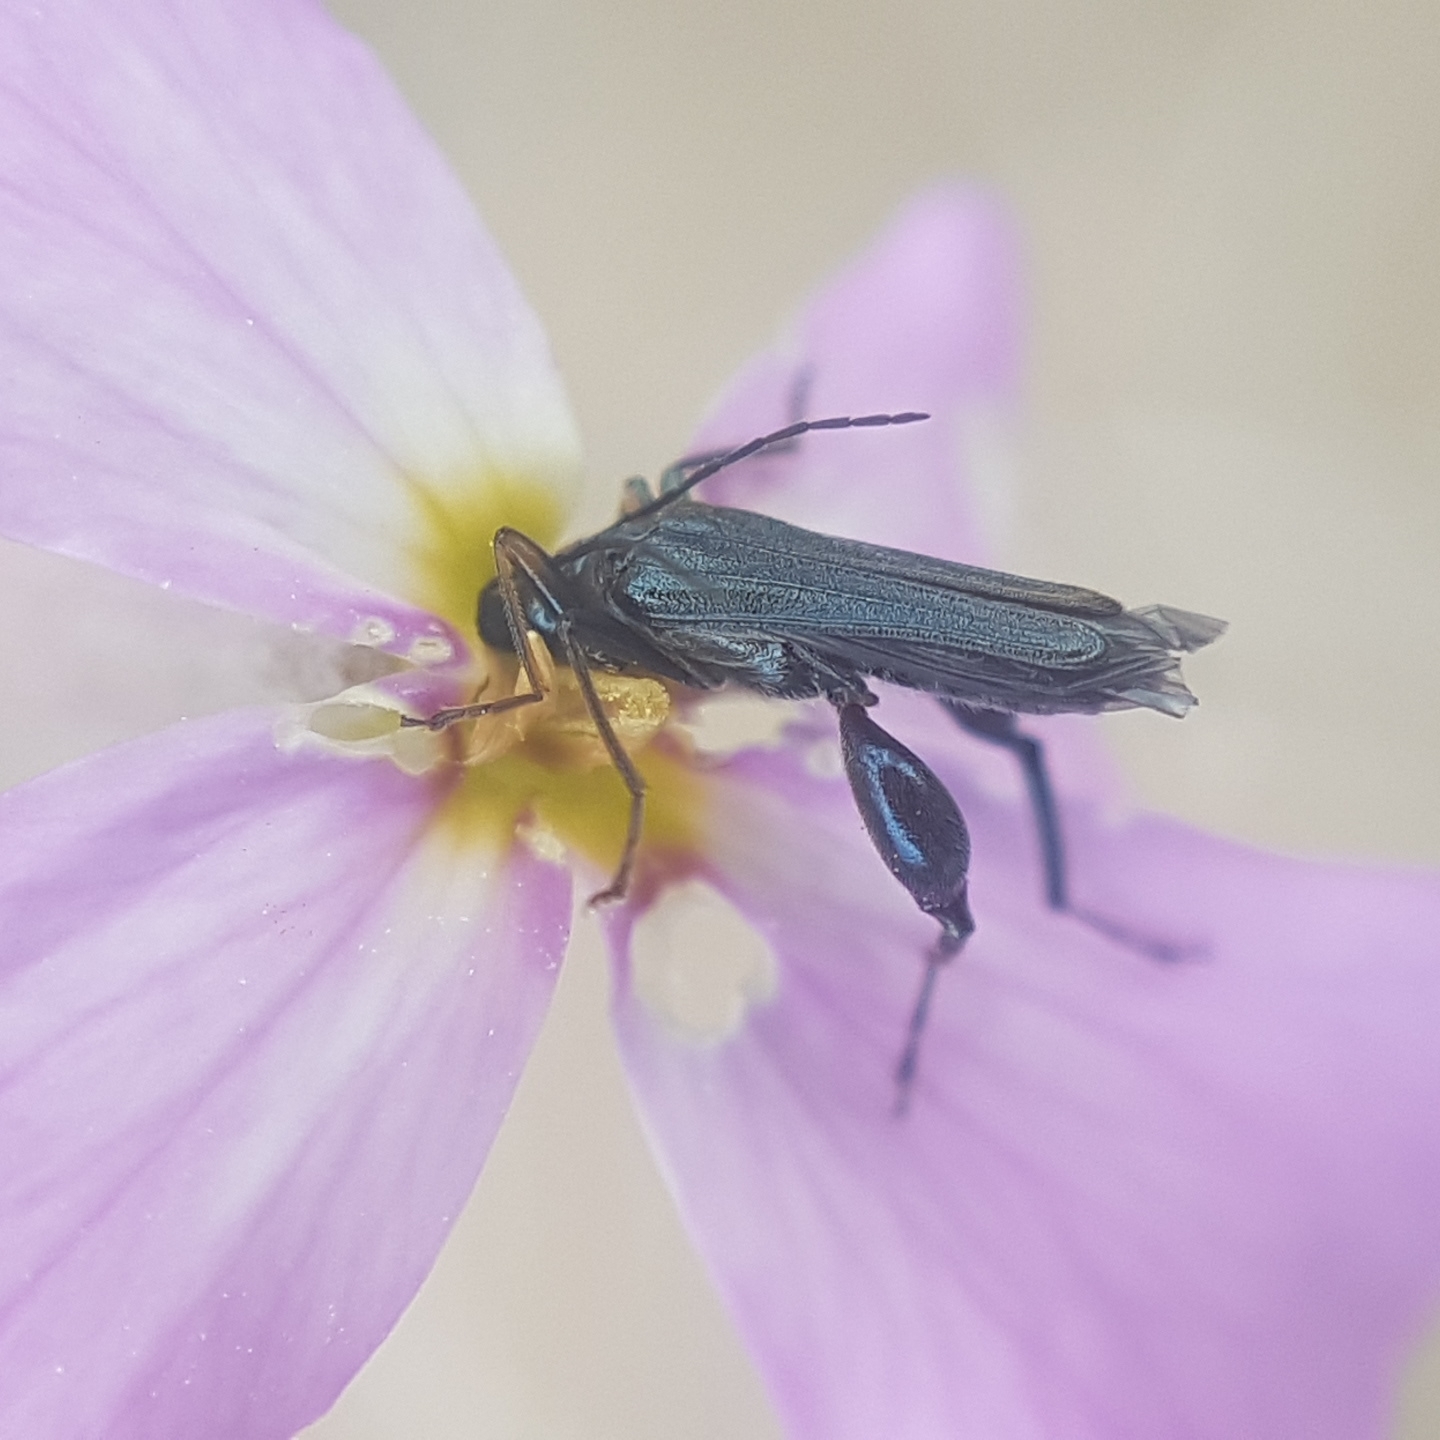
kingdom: Animalia
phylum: Arthropoda
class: Insecta
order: Coleoptera
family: Oedemeridae
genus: Oedemera
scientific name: Oedemera flavipes
